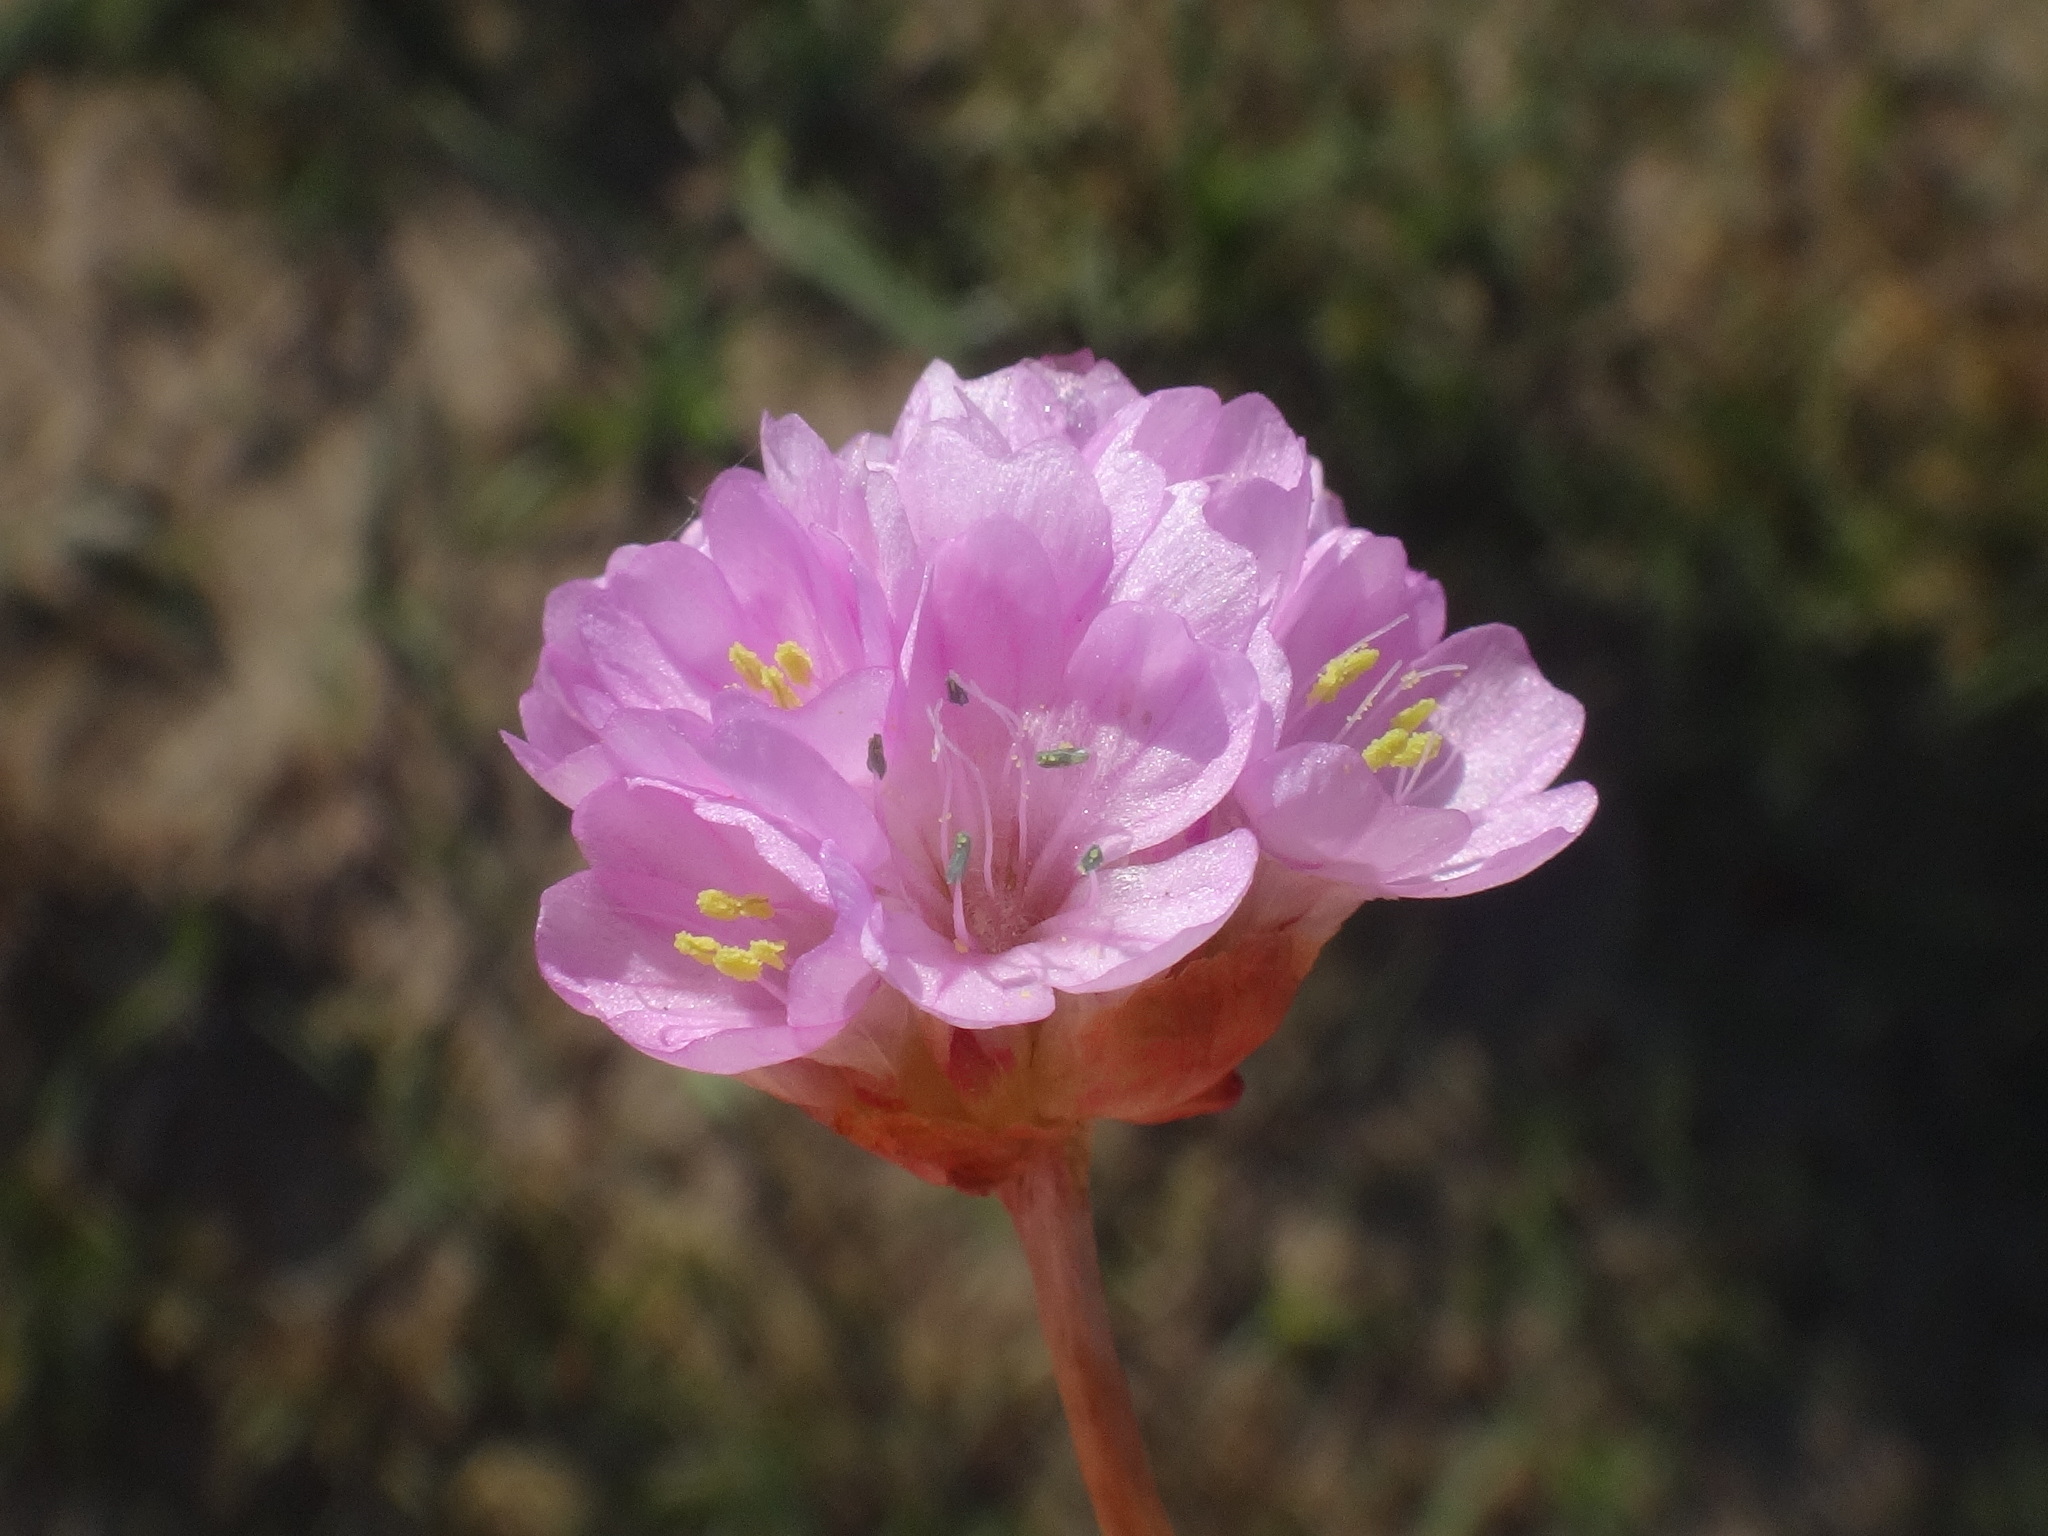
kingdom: Plantae
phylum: Tracheophyta
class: Magnoliopsida
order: Caryophyllales
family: Plumbaginaceae
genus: Armeria
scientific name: Armeria maritima
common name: Thrift
